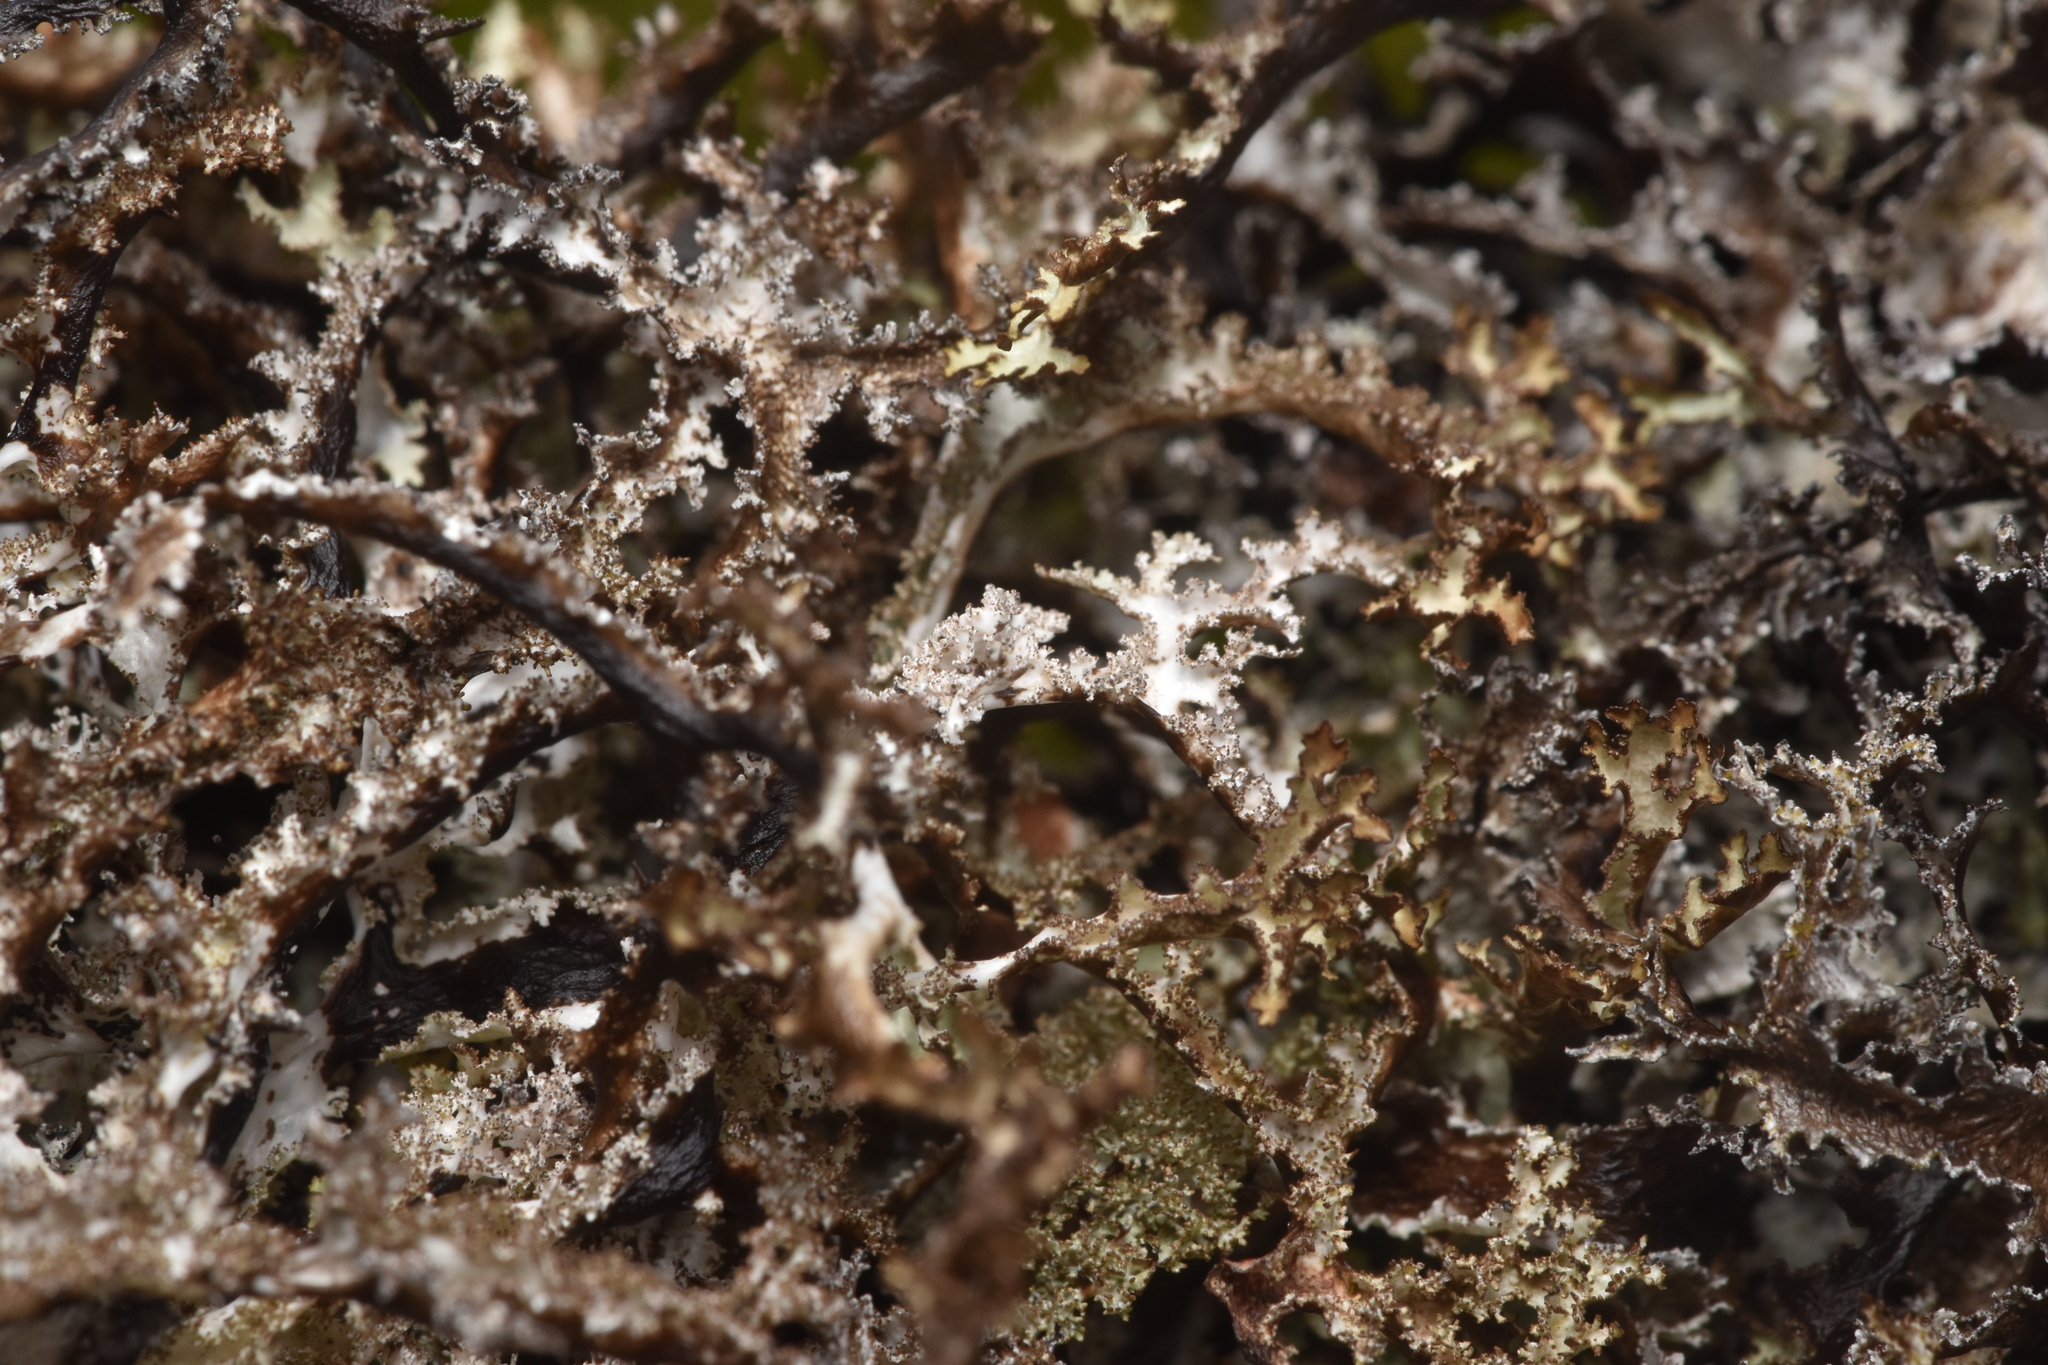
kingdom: Fungi
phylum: Ascomycota
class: Lecanoromycetes
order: Lecanorales
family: Parmeliaceae
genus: Platismatia
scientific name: Platismatia herrei
